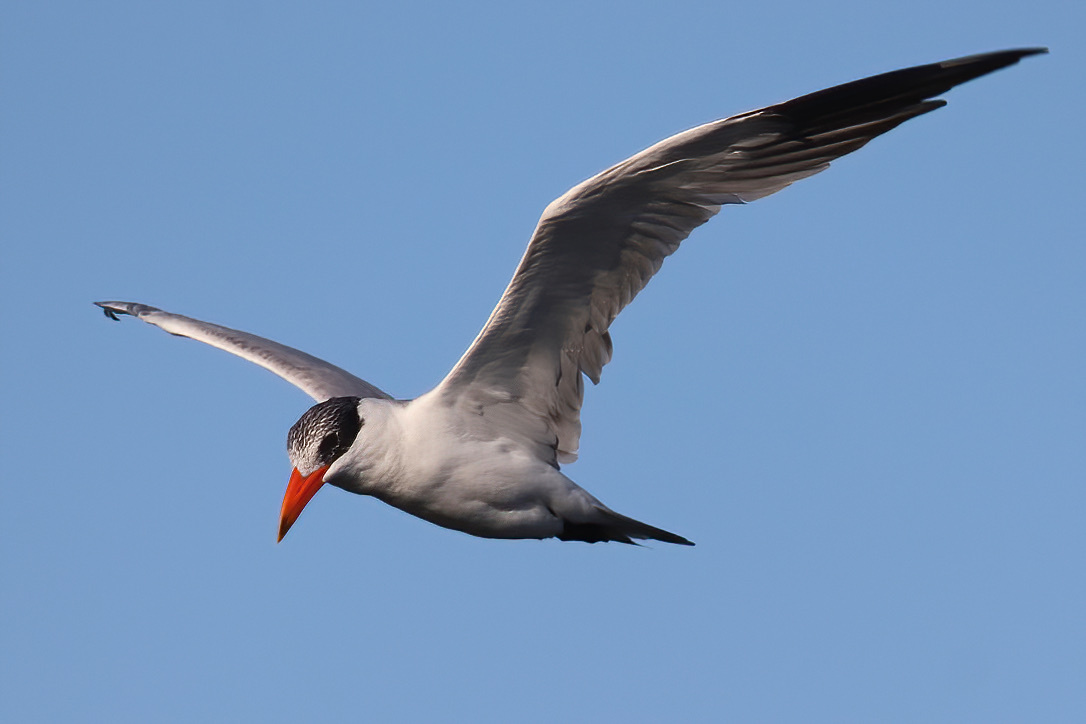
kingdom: Animalia
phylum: Chordata
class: Aves
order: Charadriiformes
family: Laridae
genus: Hydroprogne
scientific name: Hydroprogne caspia
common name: Caspian tern
